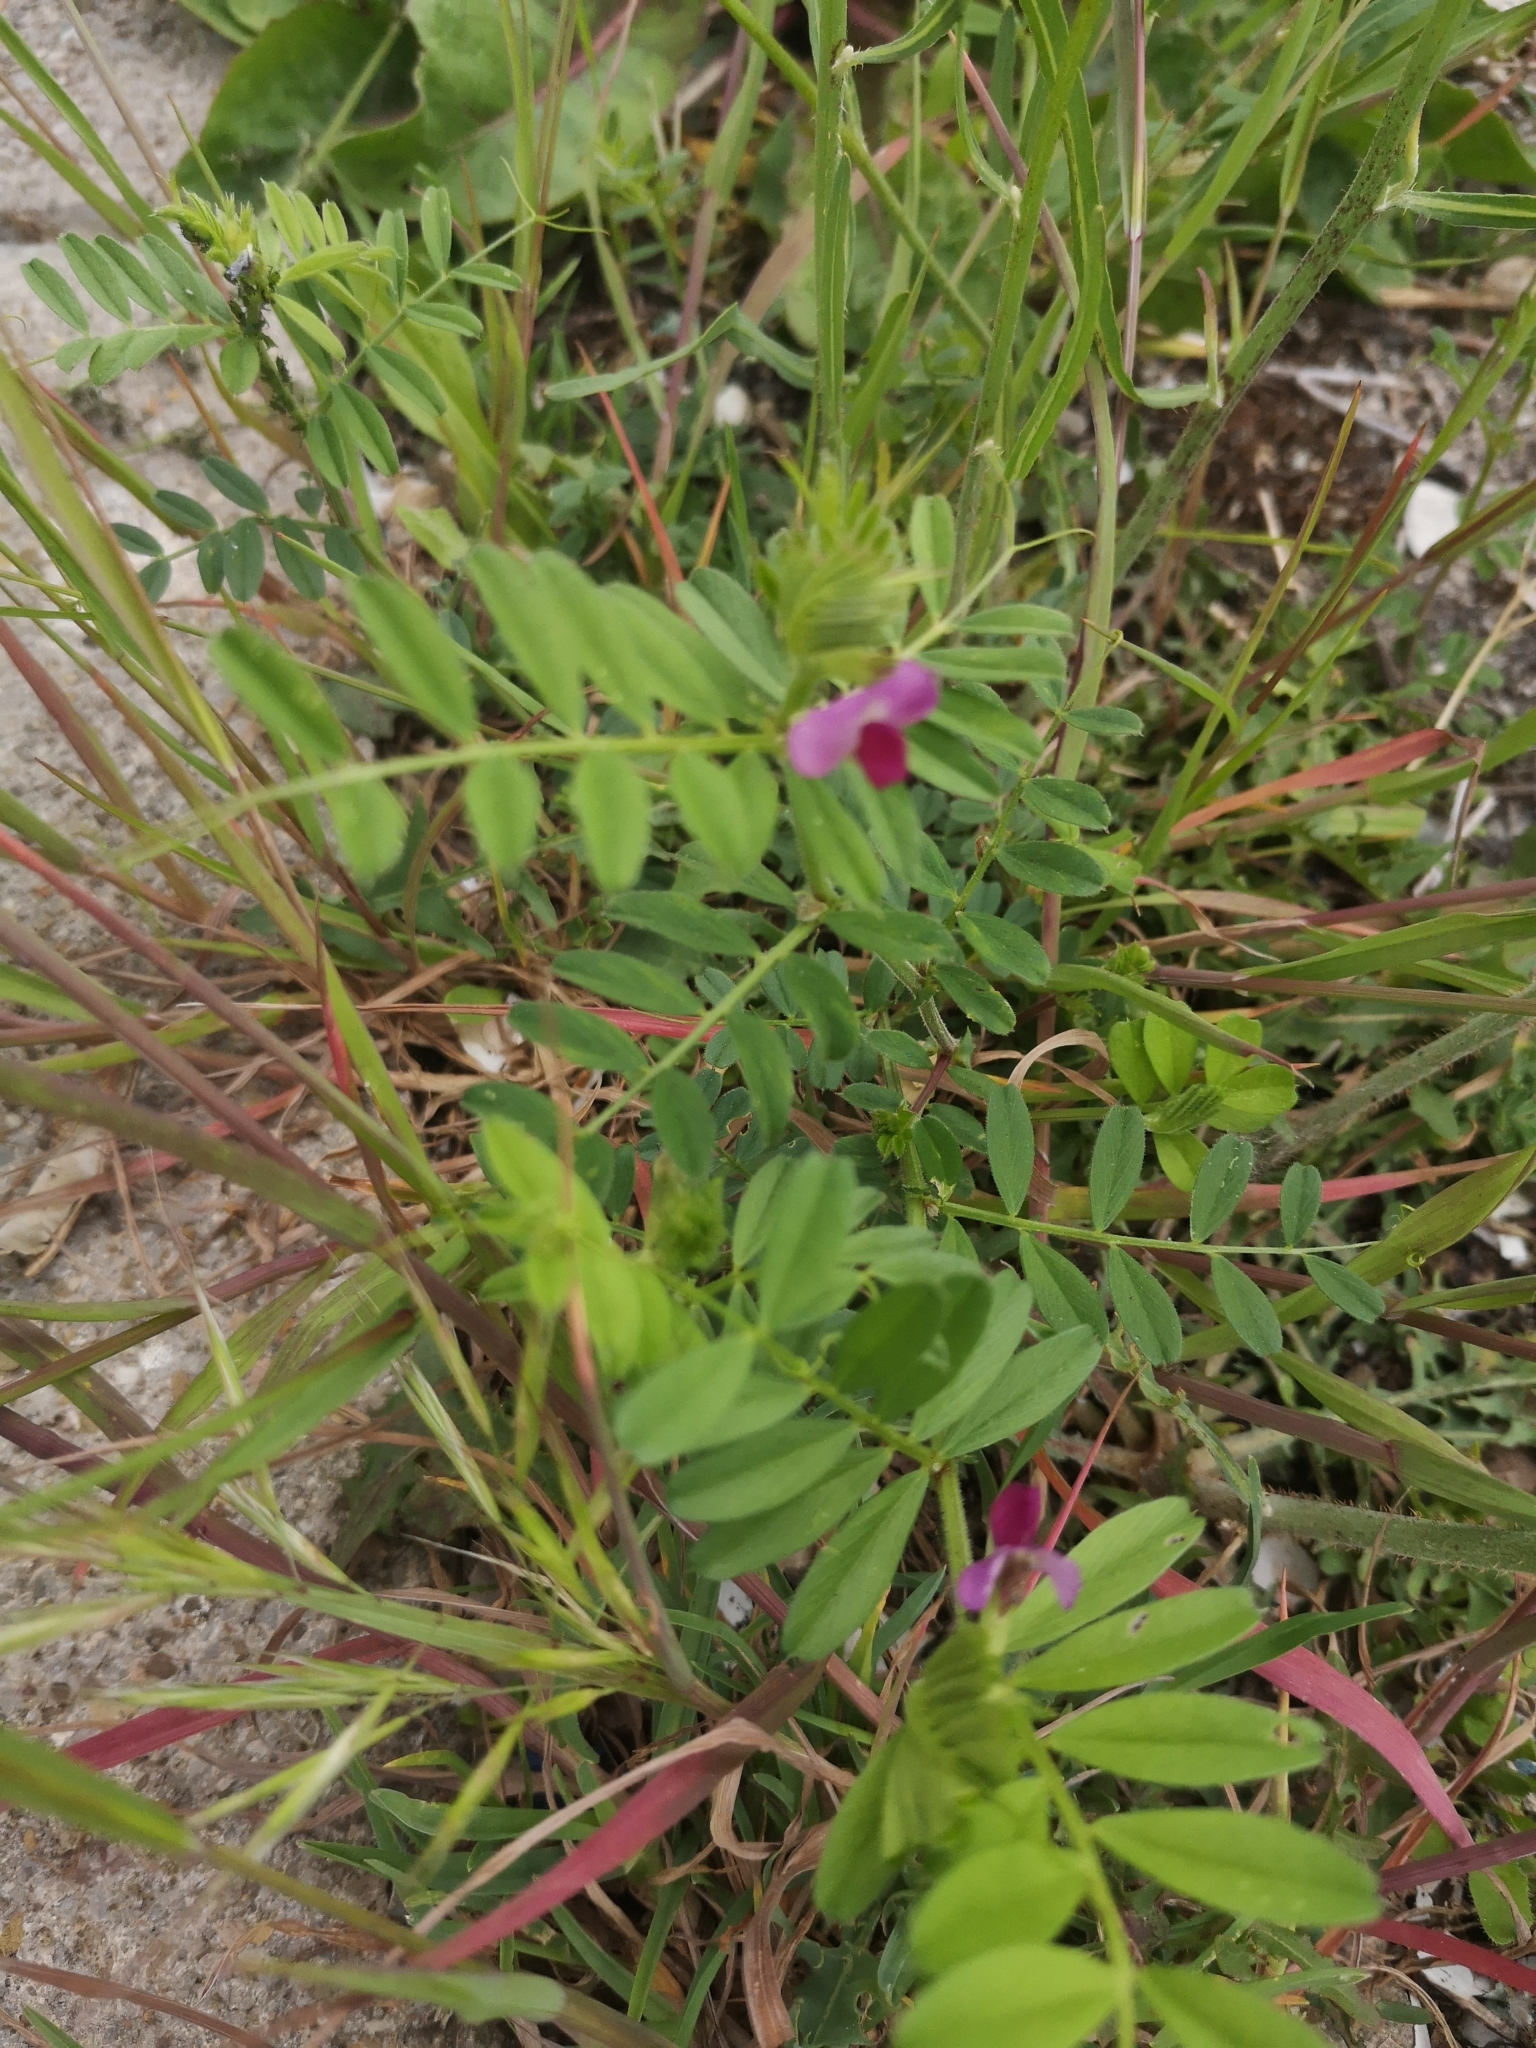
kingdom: Plantae
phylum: Tracheophyta
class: Magnoliopsida
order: Fabales
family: Fabaceae
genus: Vicia
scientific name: Vicia sativa
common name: Garden vetch
